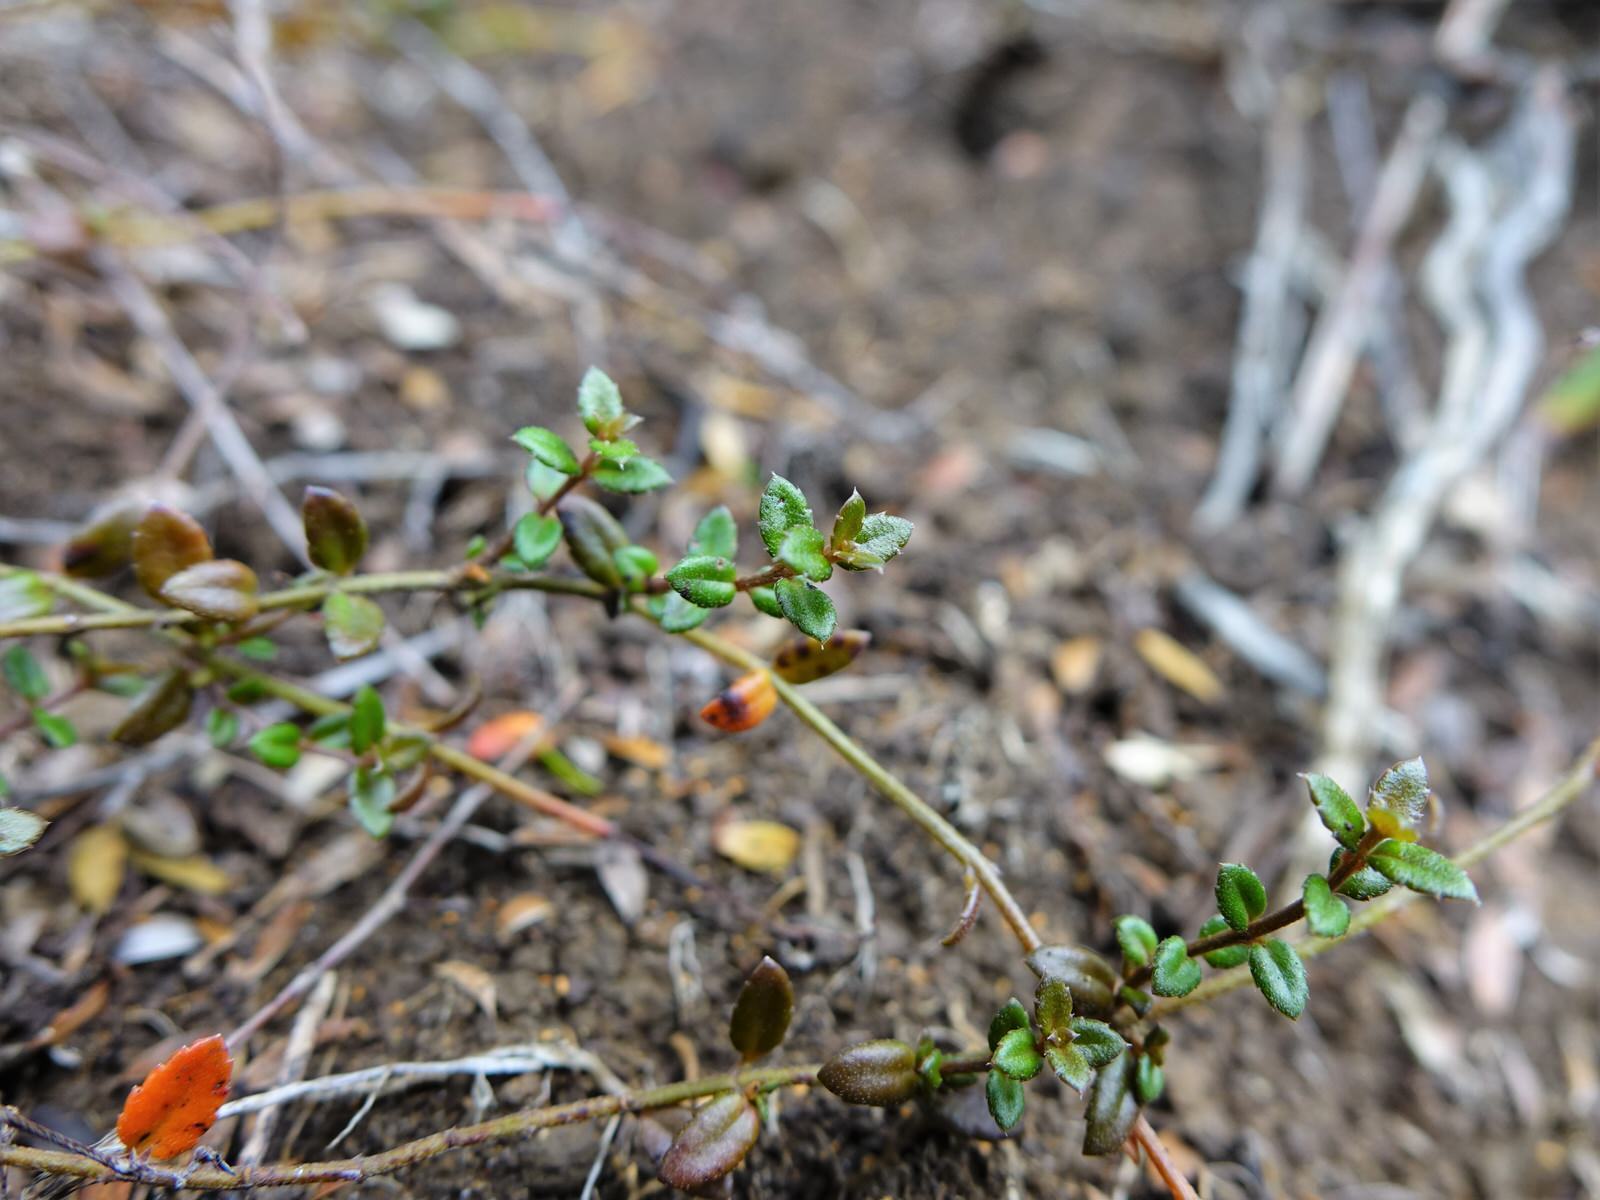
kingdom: Plantae
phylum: Tracheophyta
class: Magnoliopsida
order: Saxifragales
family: Haloragaceae
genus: Gonocarpus
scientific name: Gonocarpus incanus
